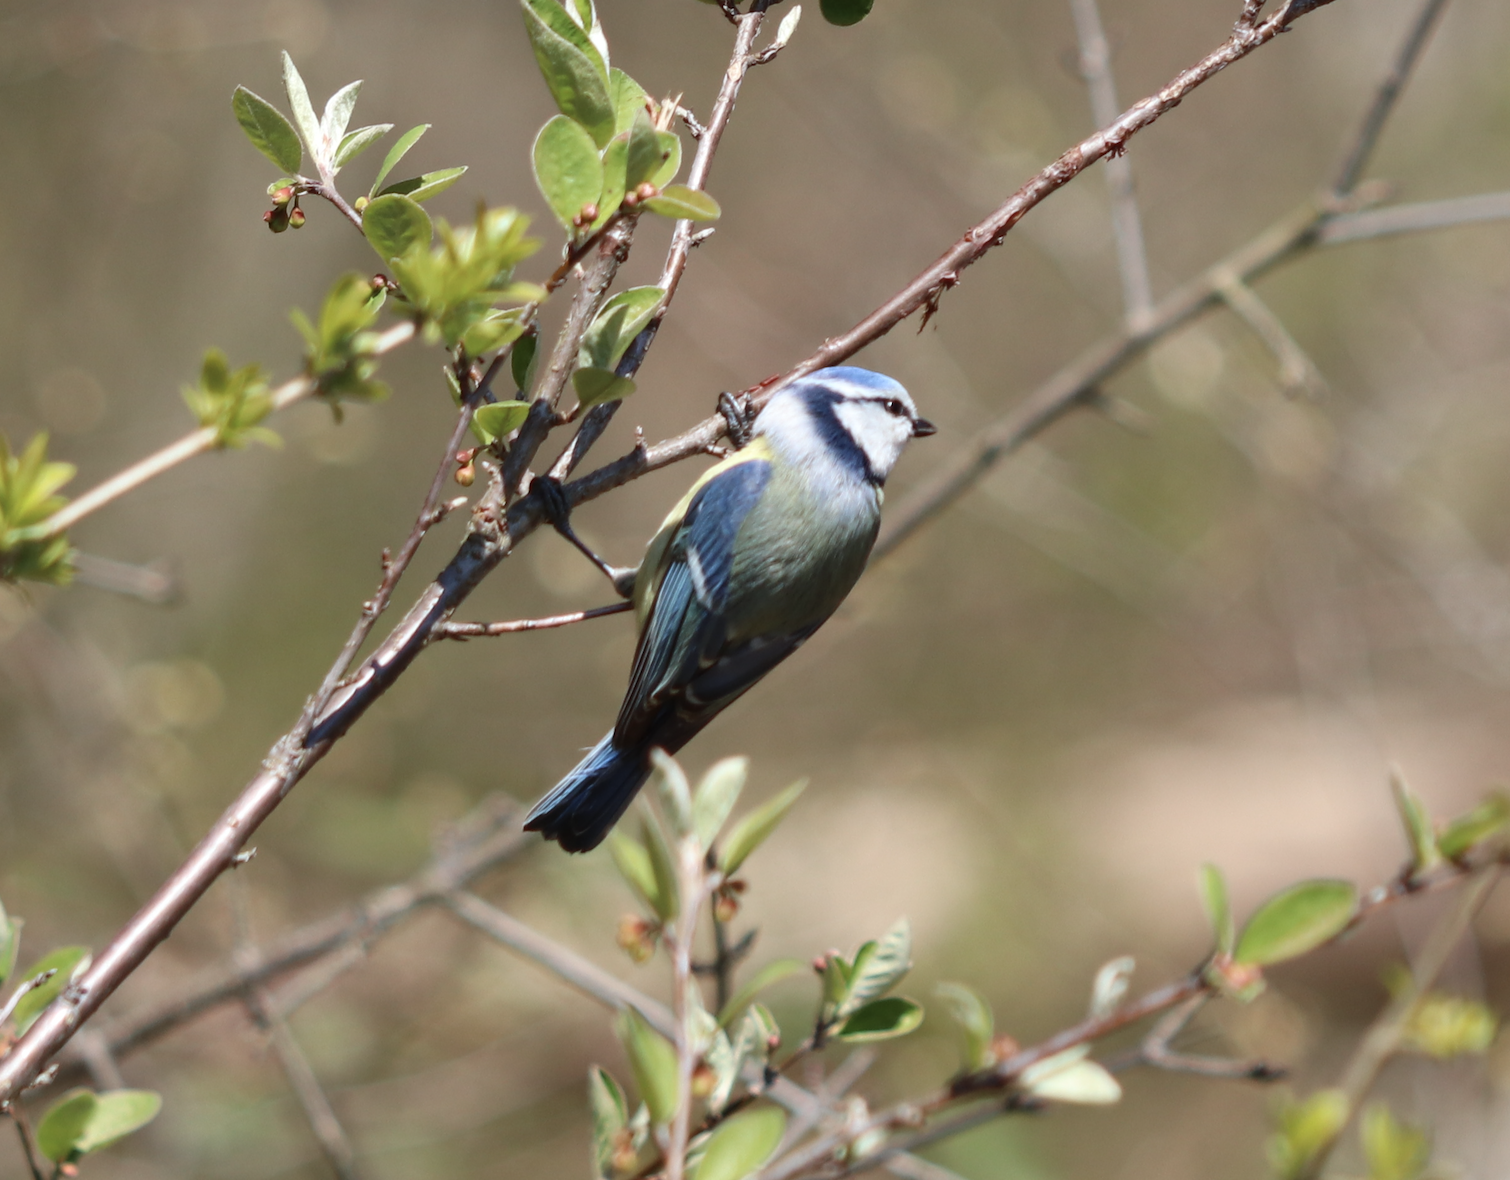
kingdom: Animalia
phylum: Chordata
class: Aves
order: Passeriformes
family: Paridae
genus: Cyanistes
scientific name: Cyanistes caeruleus
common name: Eurasian blue tit
